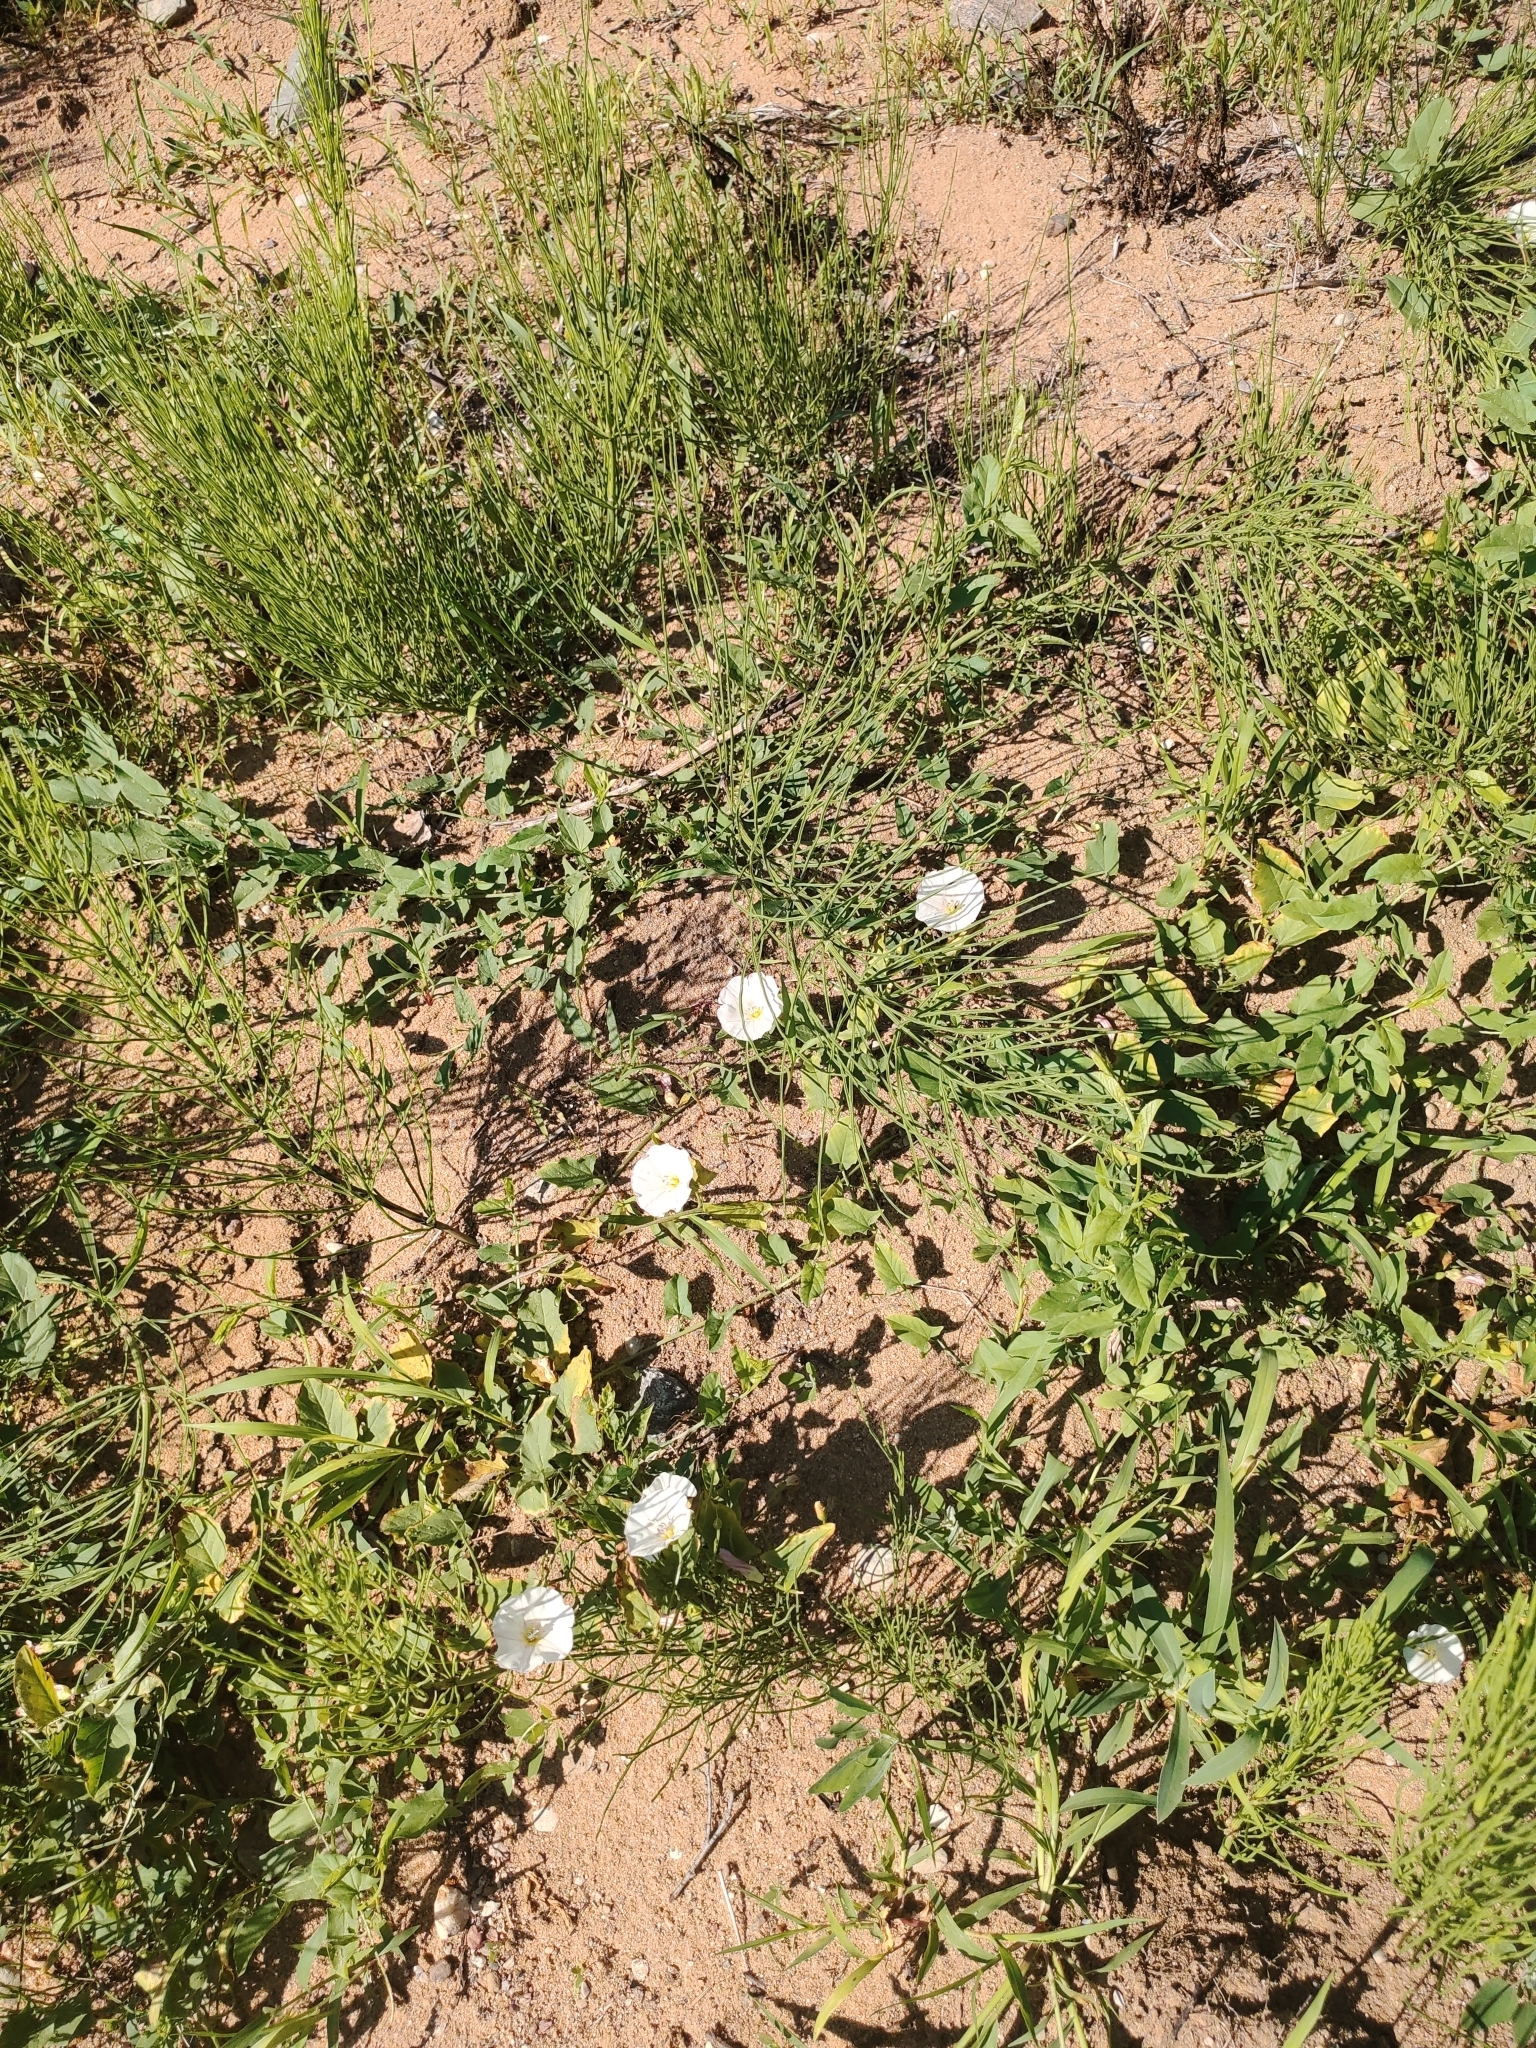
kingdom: Plantae
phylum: Tracheophyta
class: Magnoliopsida
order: Solanales
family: Convolvulaceae
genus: Convolvulus
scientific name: Convolvulus arvensis
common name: Field bindweed
